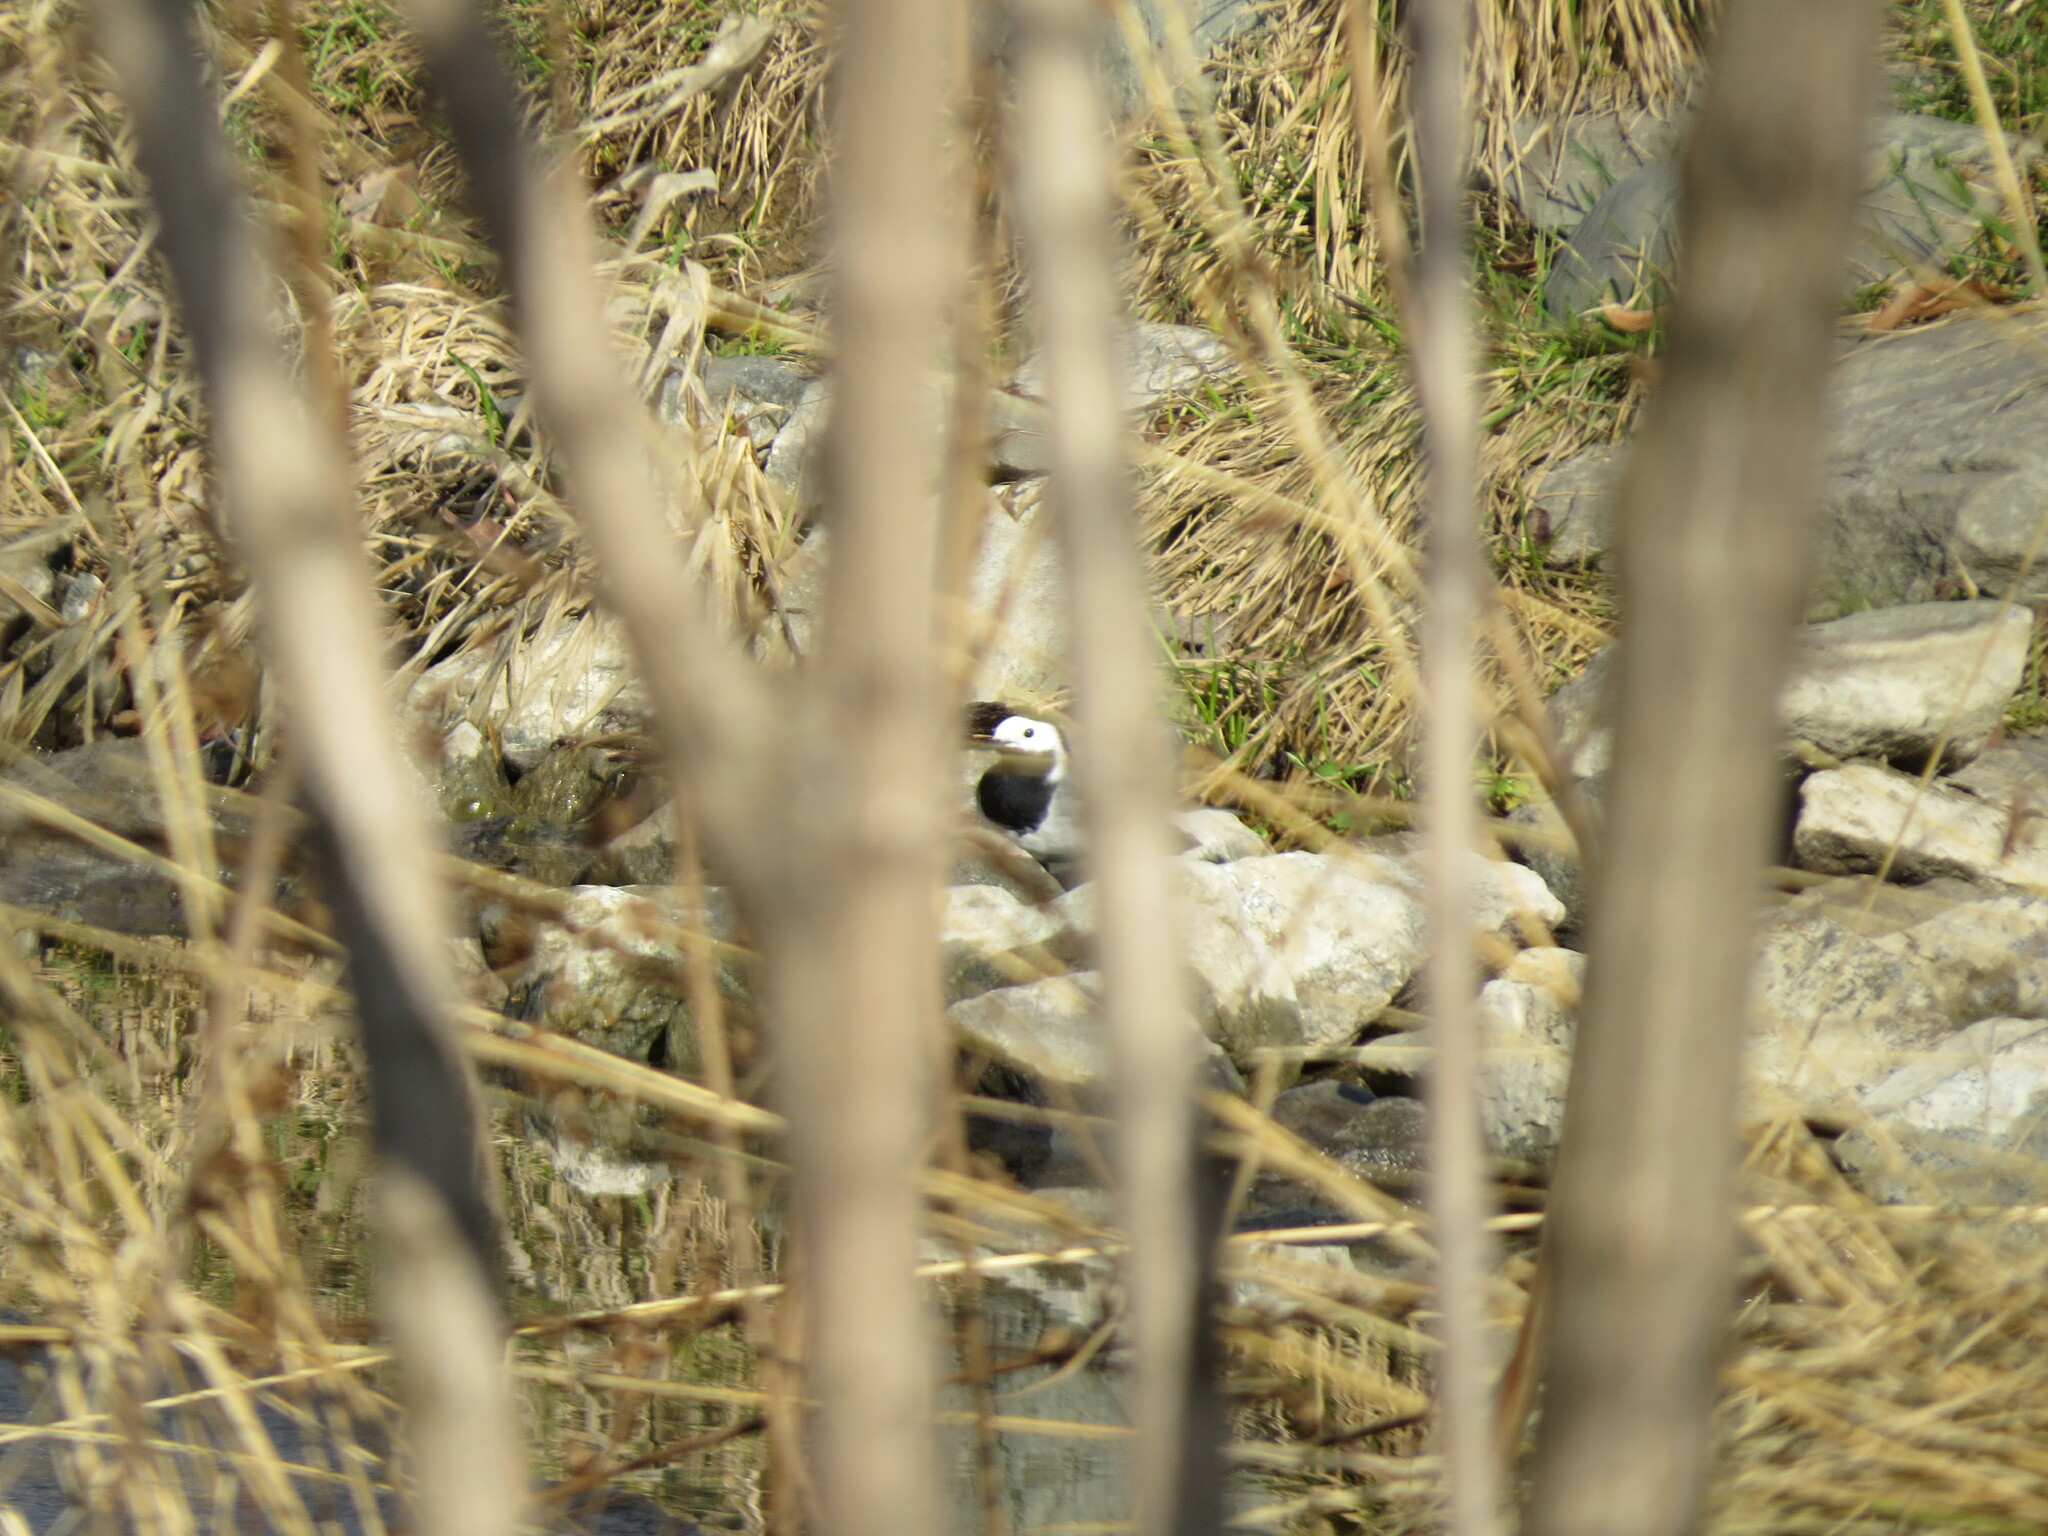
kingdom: Animalia
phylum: Chordata
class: Aves
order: Passeriformes
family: Motacillidae
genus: Motacilla
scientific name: Motacilla alba
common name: White wagtail
